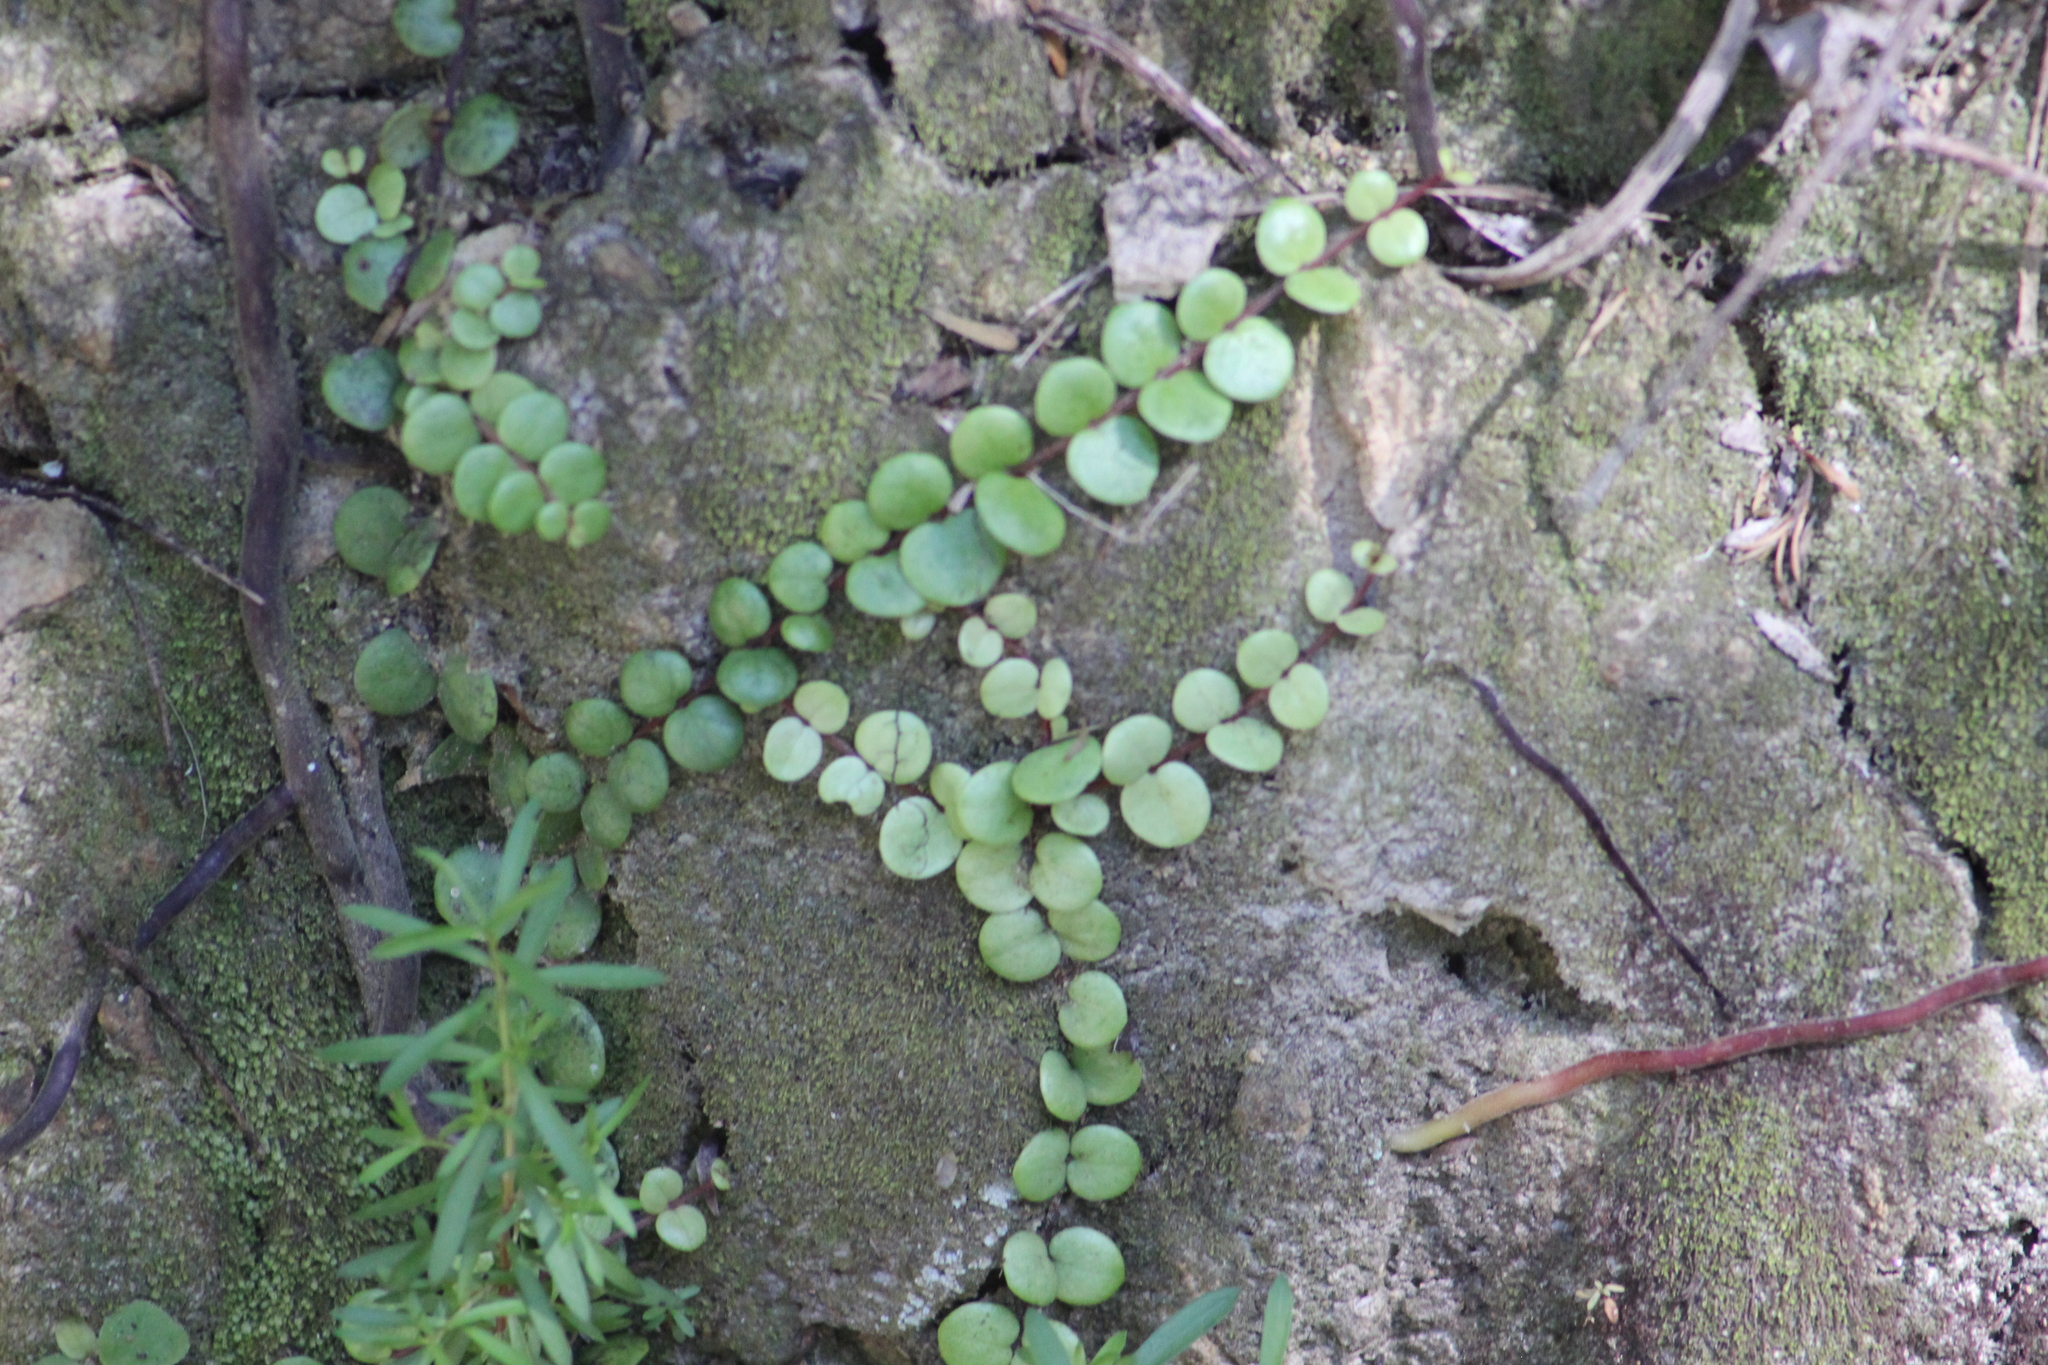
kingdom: Plantae
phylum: Tracheophyta
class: Magnoliopsida
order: Myrtales
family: Myrtaceae
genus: Metrosideros
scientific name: Metrosideros perforata
